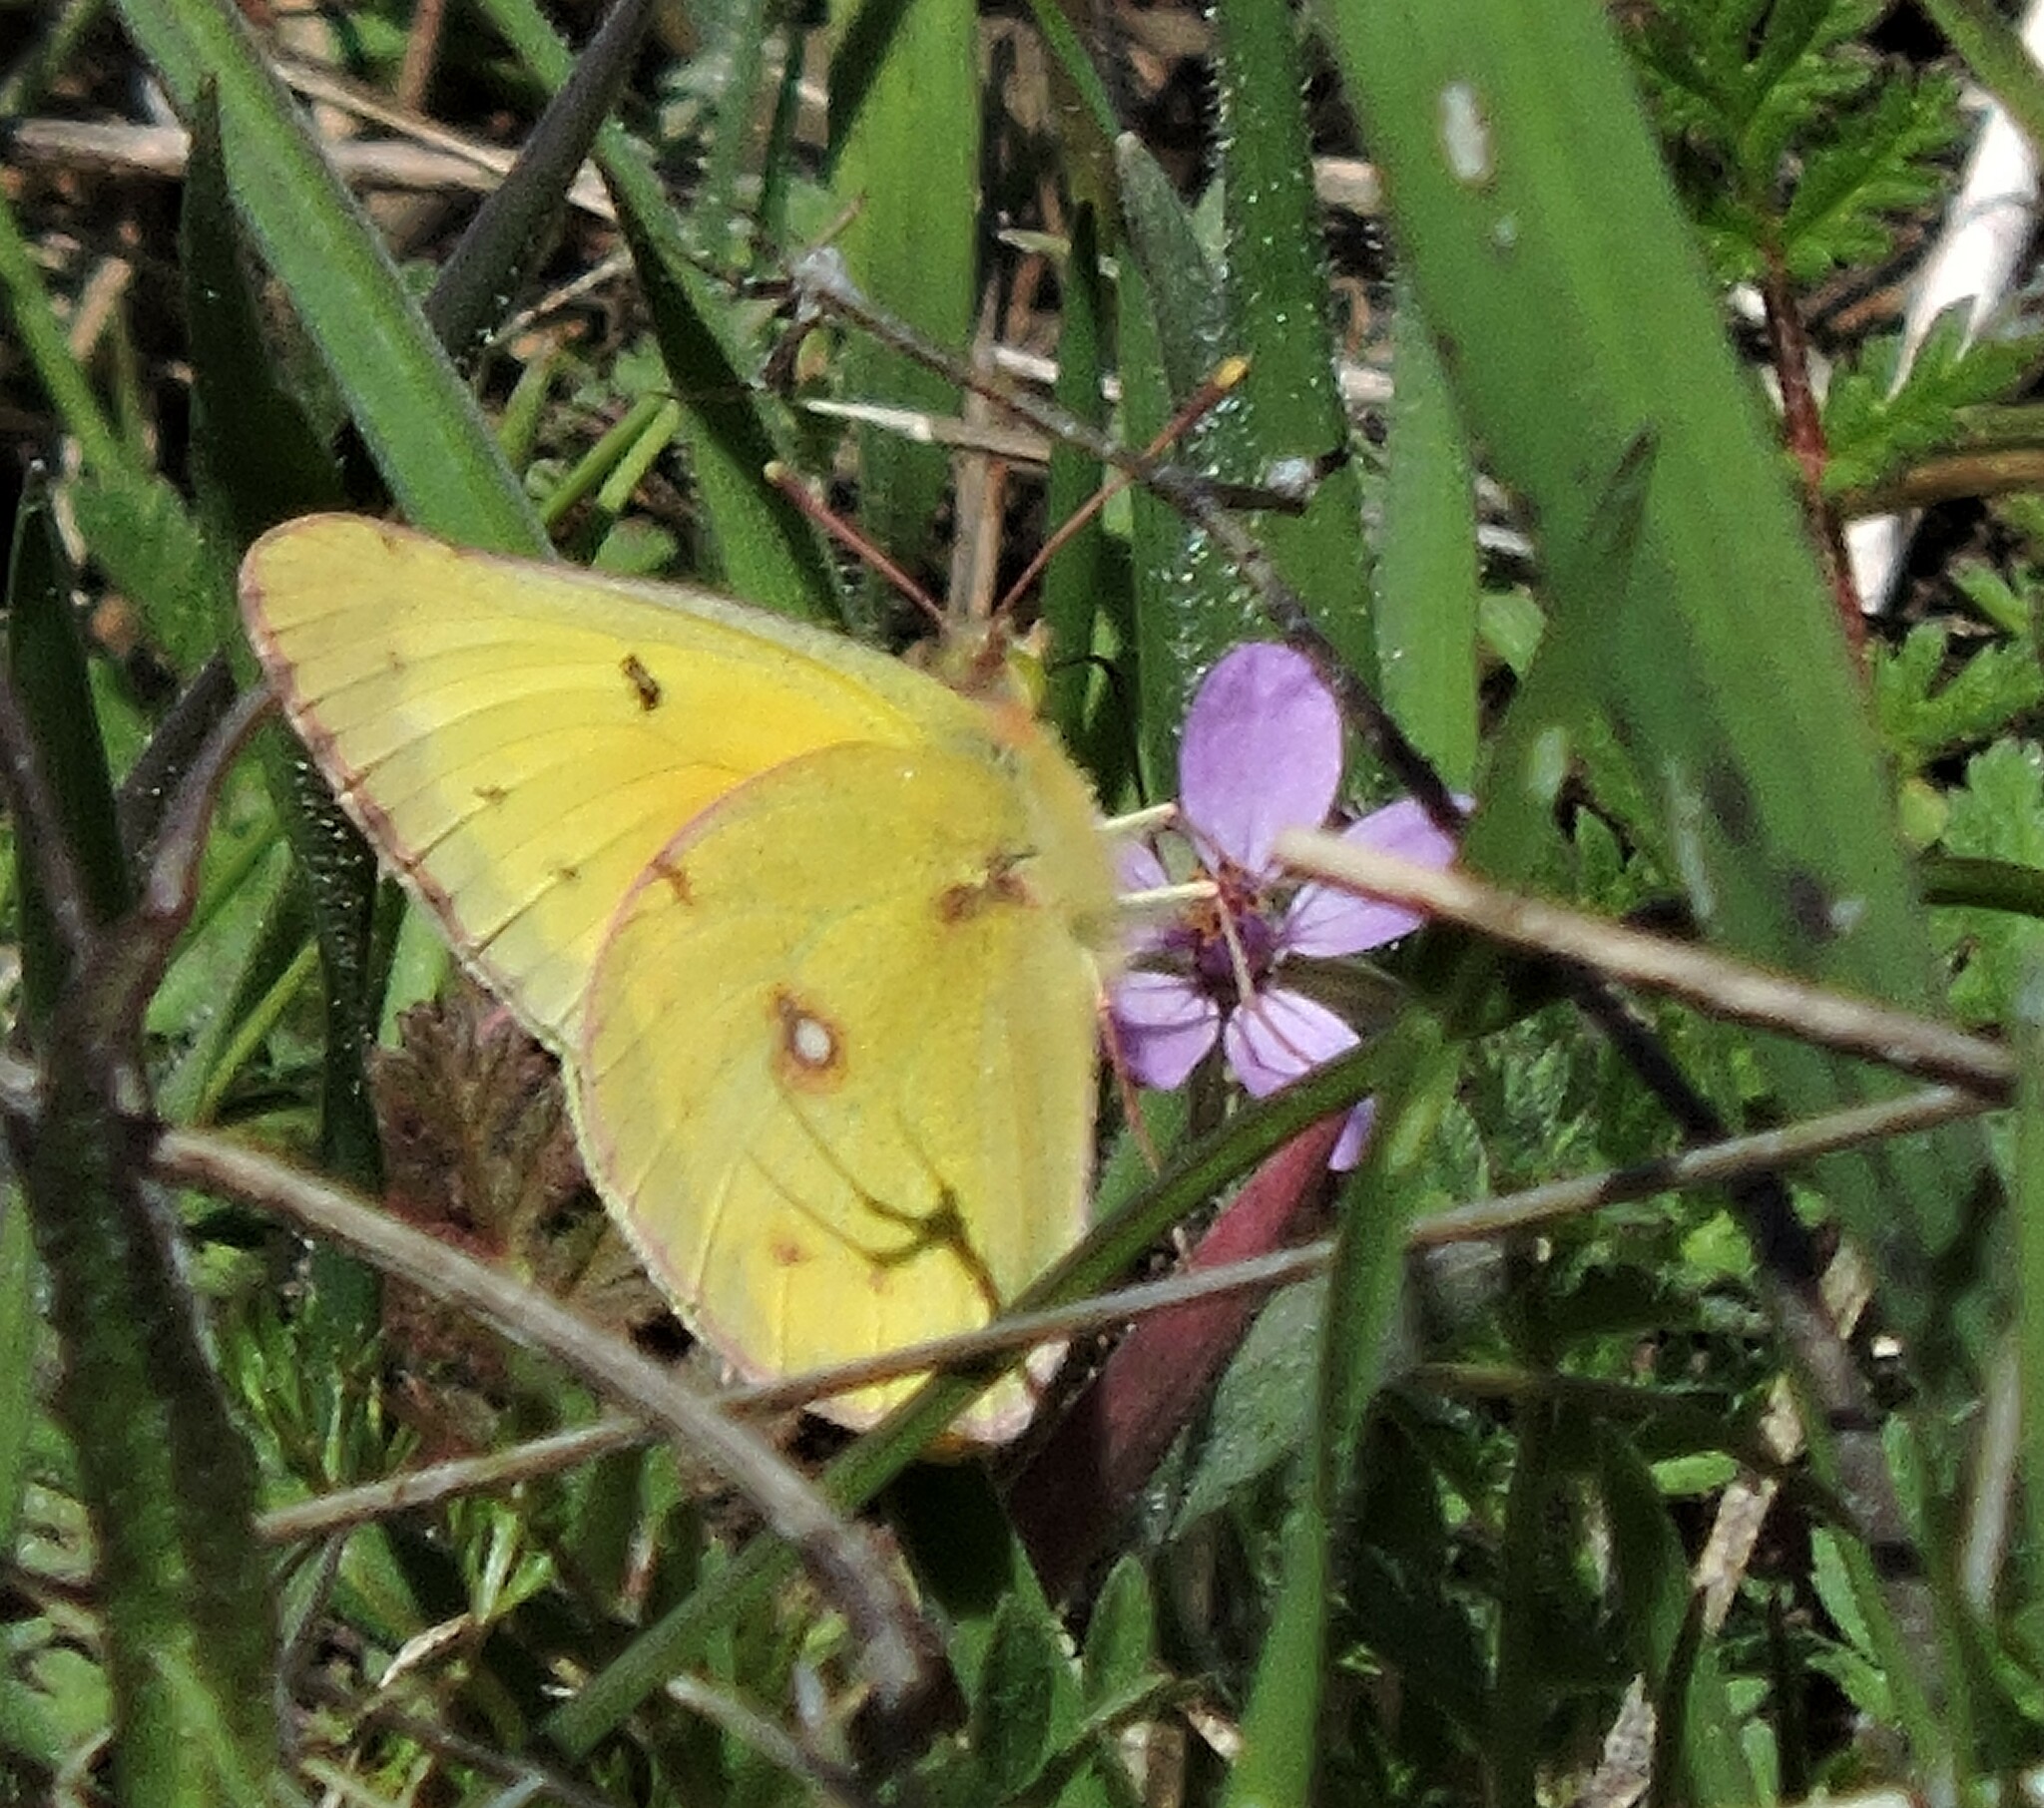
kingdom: Animalia
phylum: Arthropoda
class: Insecta
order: Lepidoptera
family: Pieridae
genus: Colias
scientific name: Colias eurytheme
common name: Alfalfa butterfly
